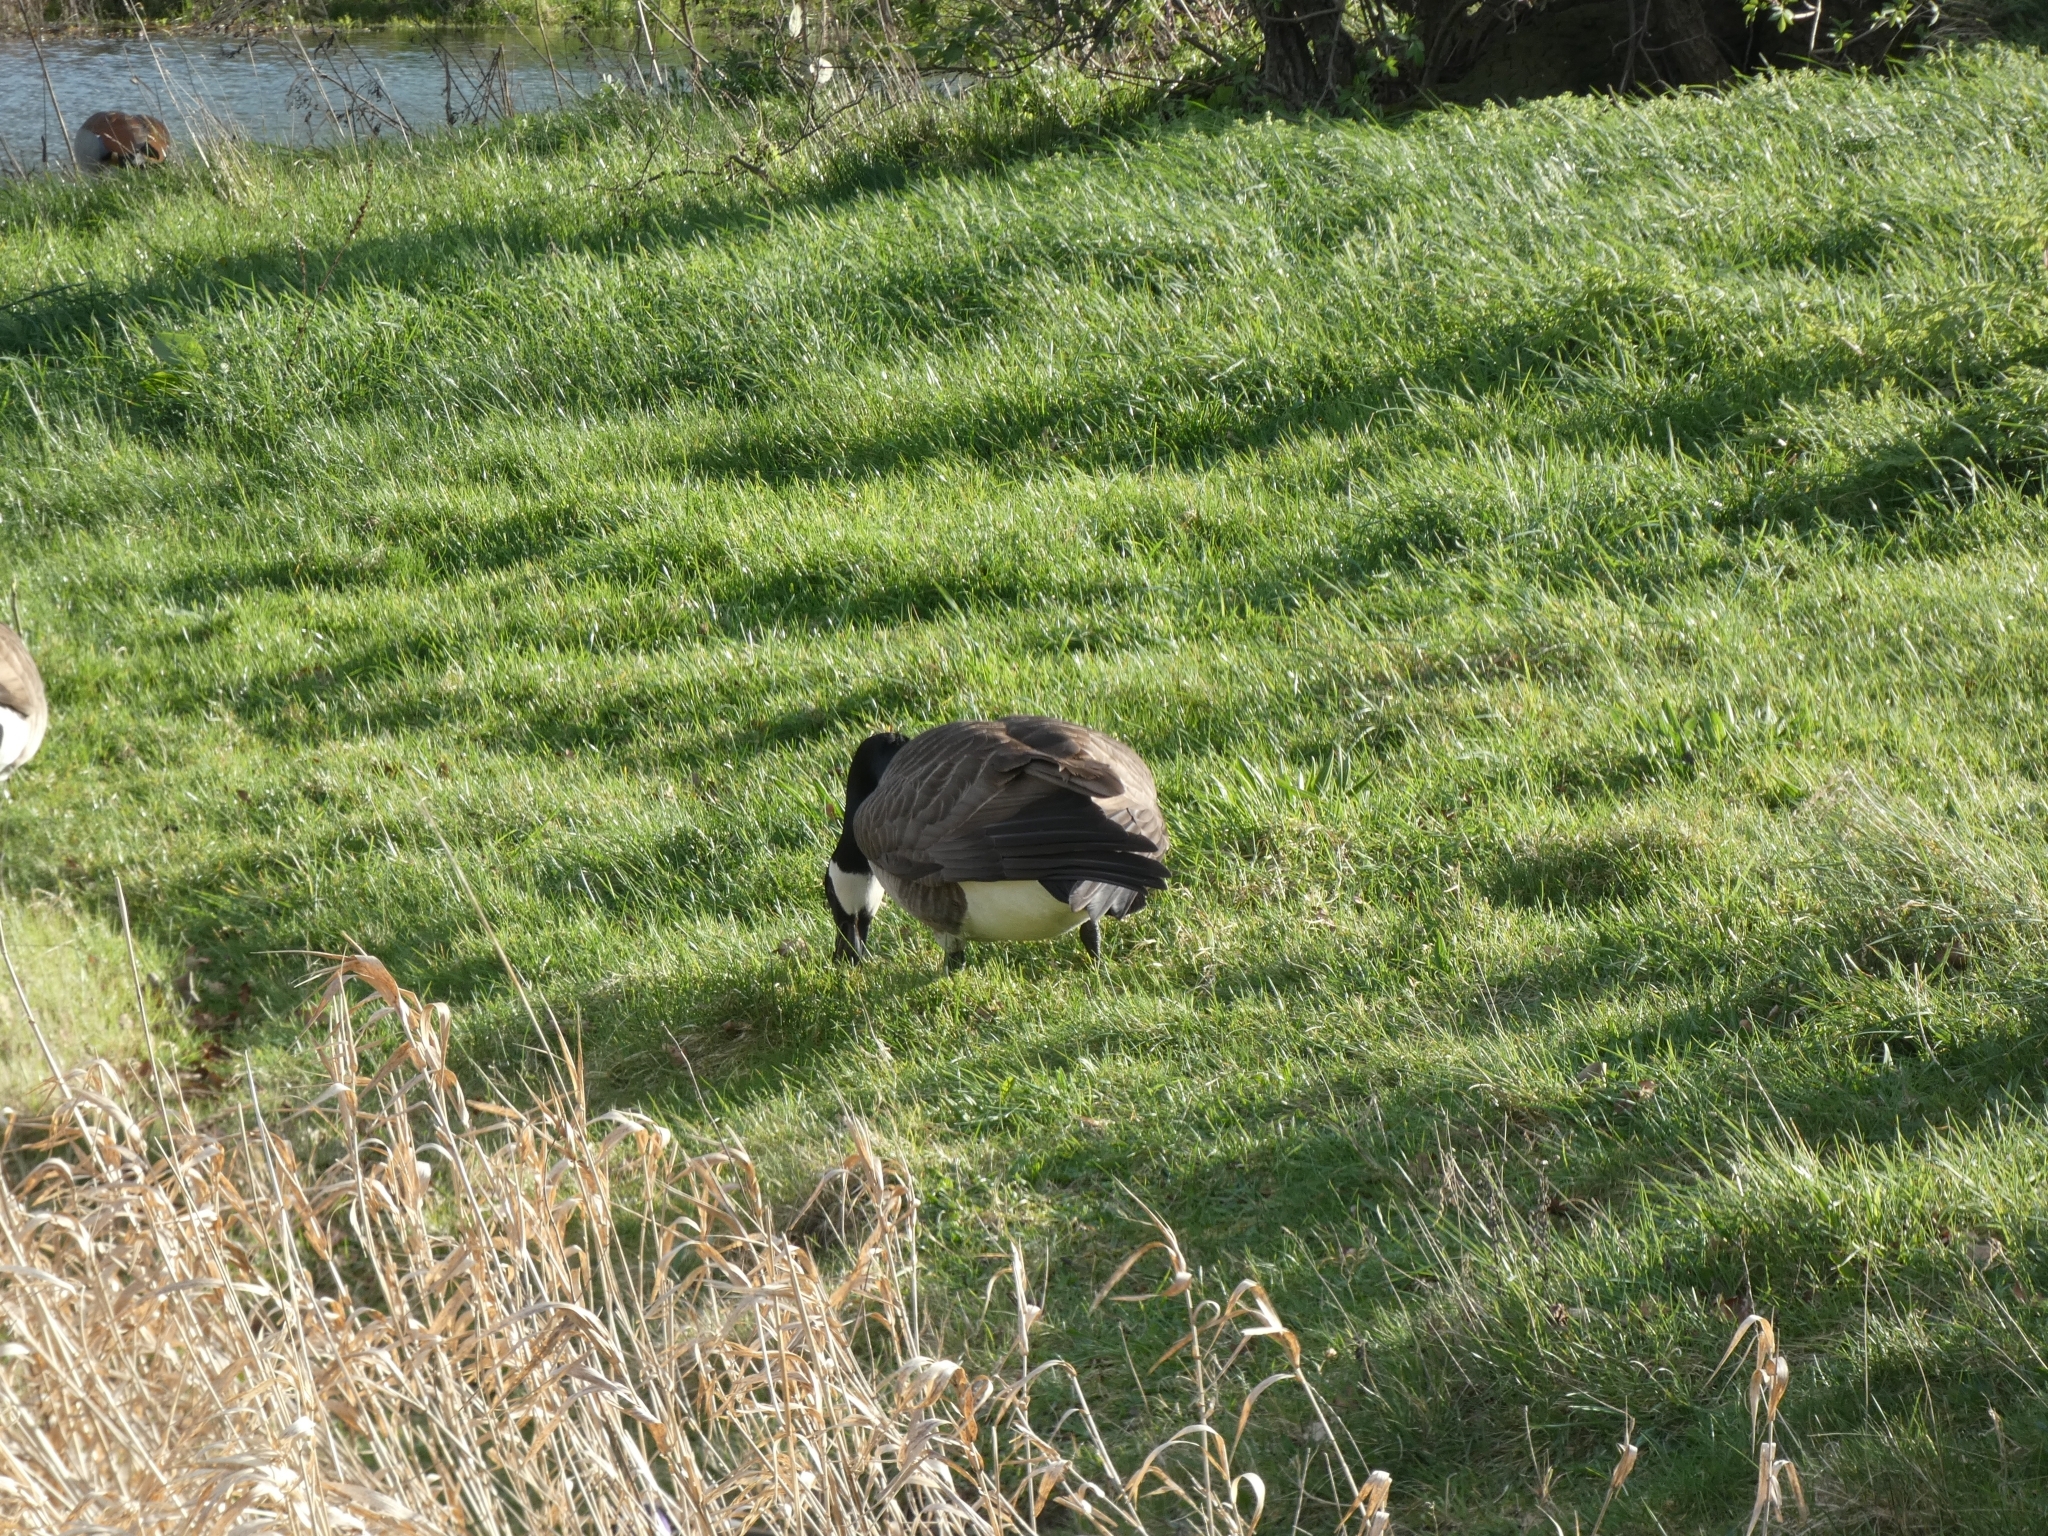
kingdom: Animalia
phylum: Chordata
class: Aves
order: Anseriformes
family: Anatidae
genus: Branta
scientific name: Branta canadensis
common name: Canada goose
